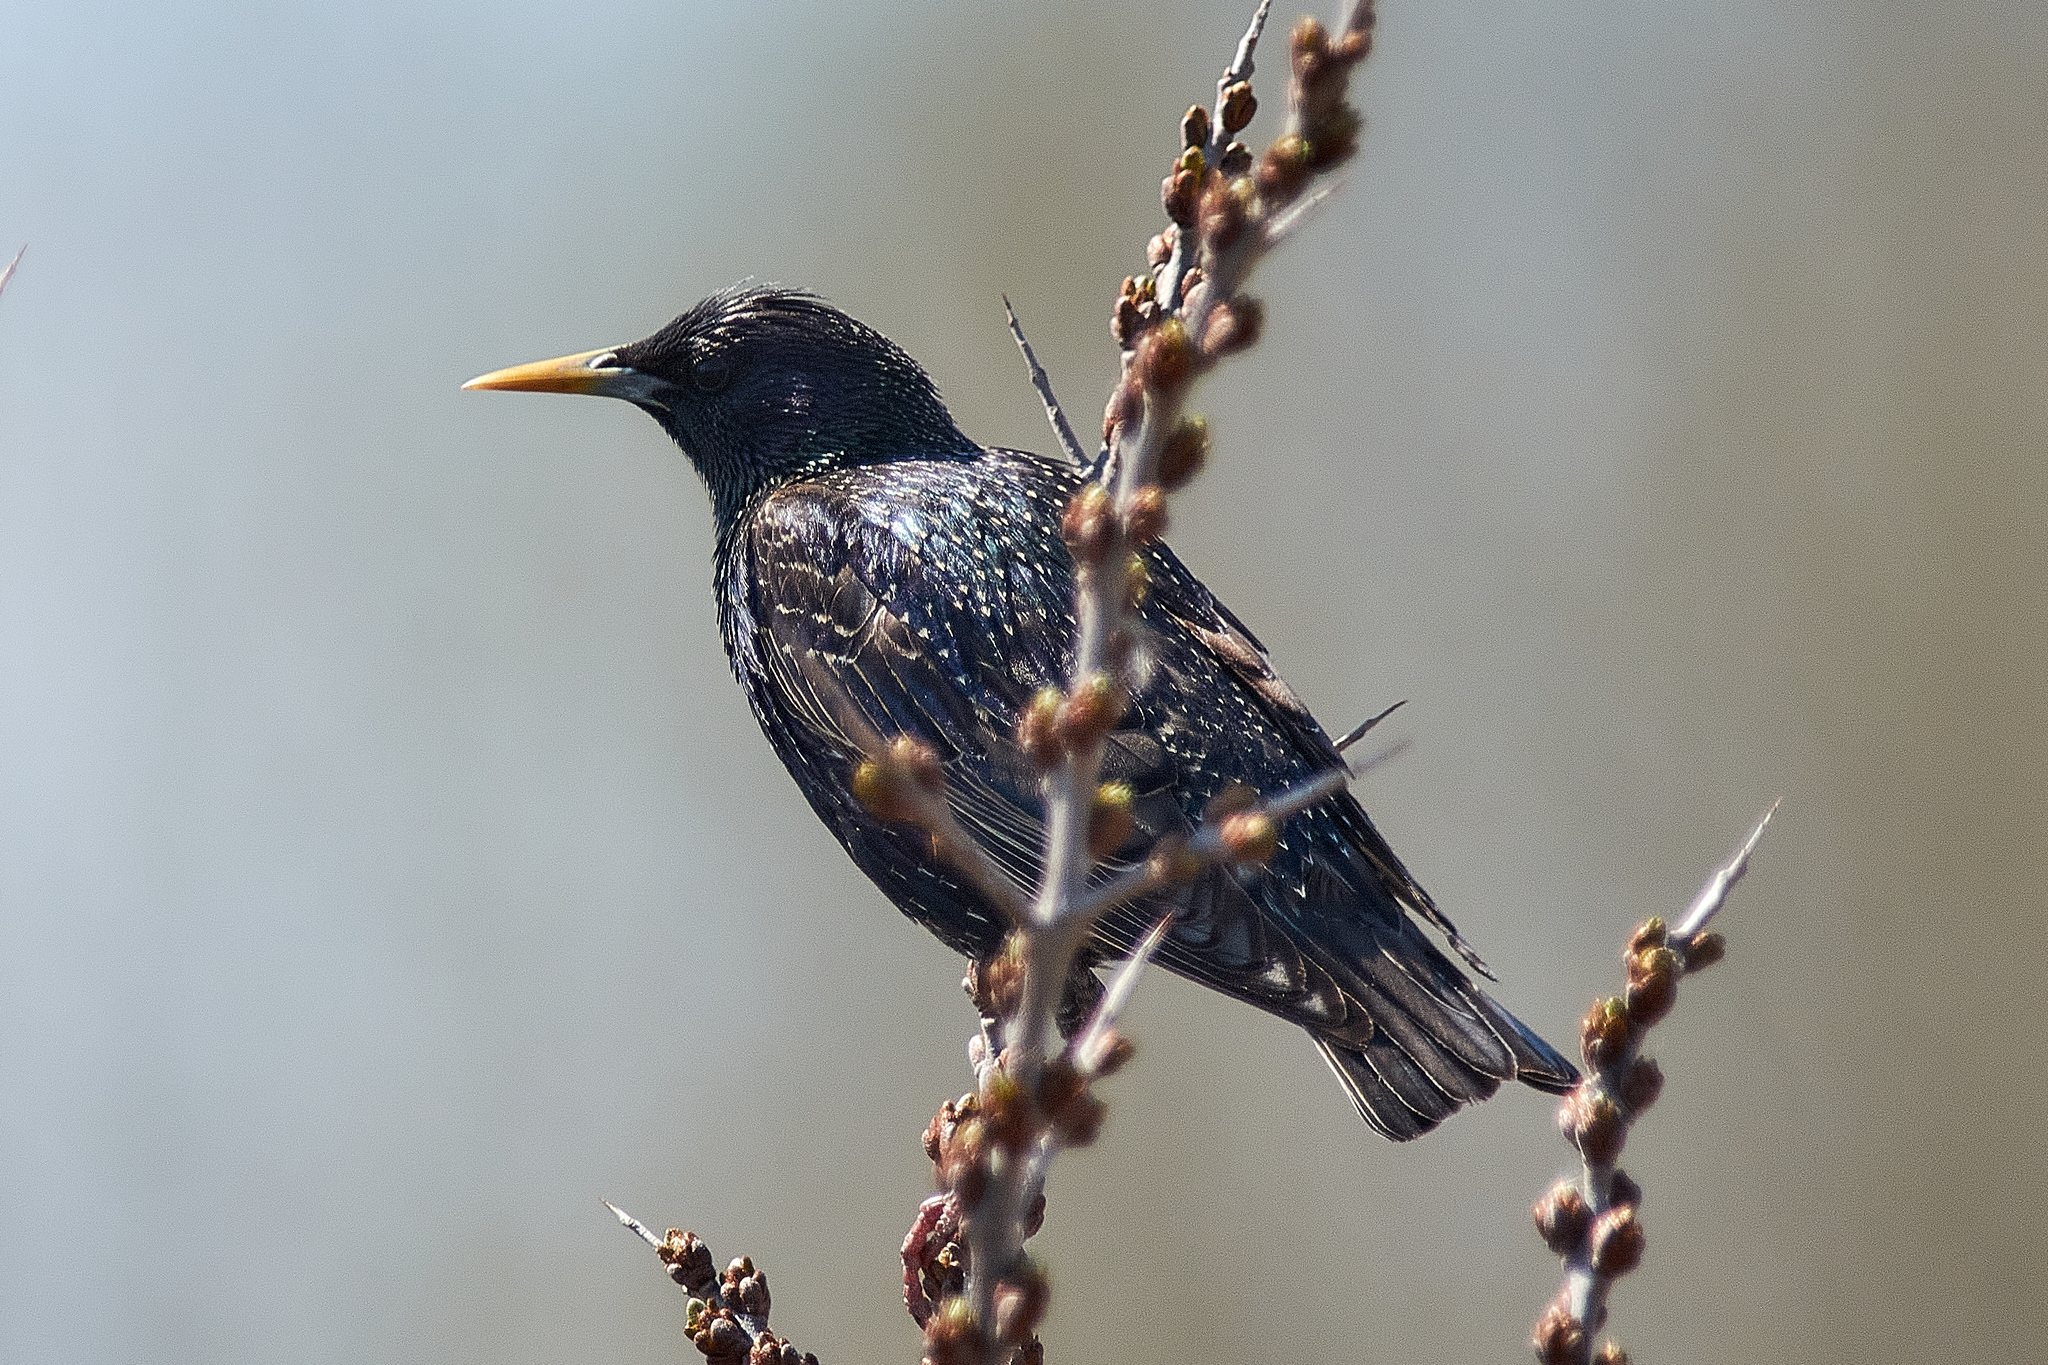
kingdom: Animalia
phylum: Chordata
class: Aves
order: Passeriformes
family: Sturnidae
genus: Sturnus
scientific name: Sturnus vulgaris
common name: Common starling
